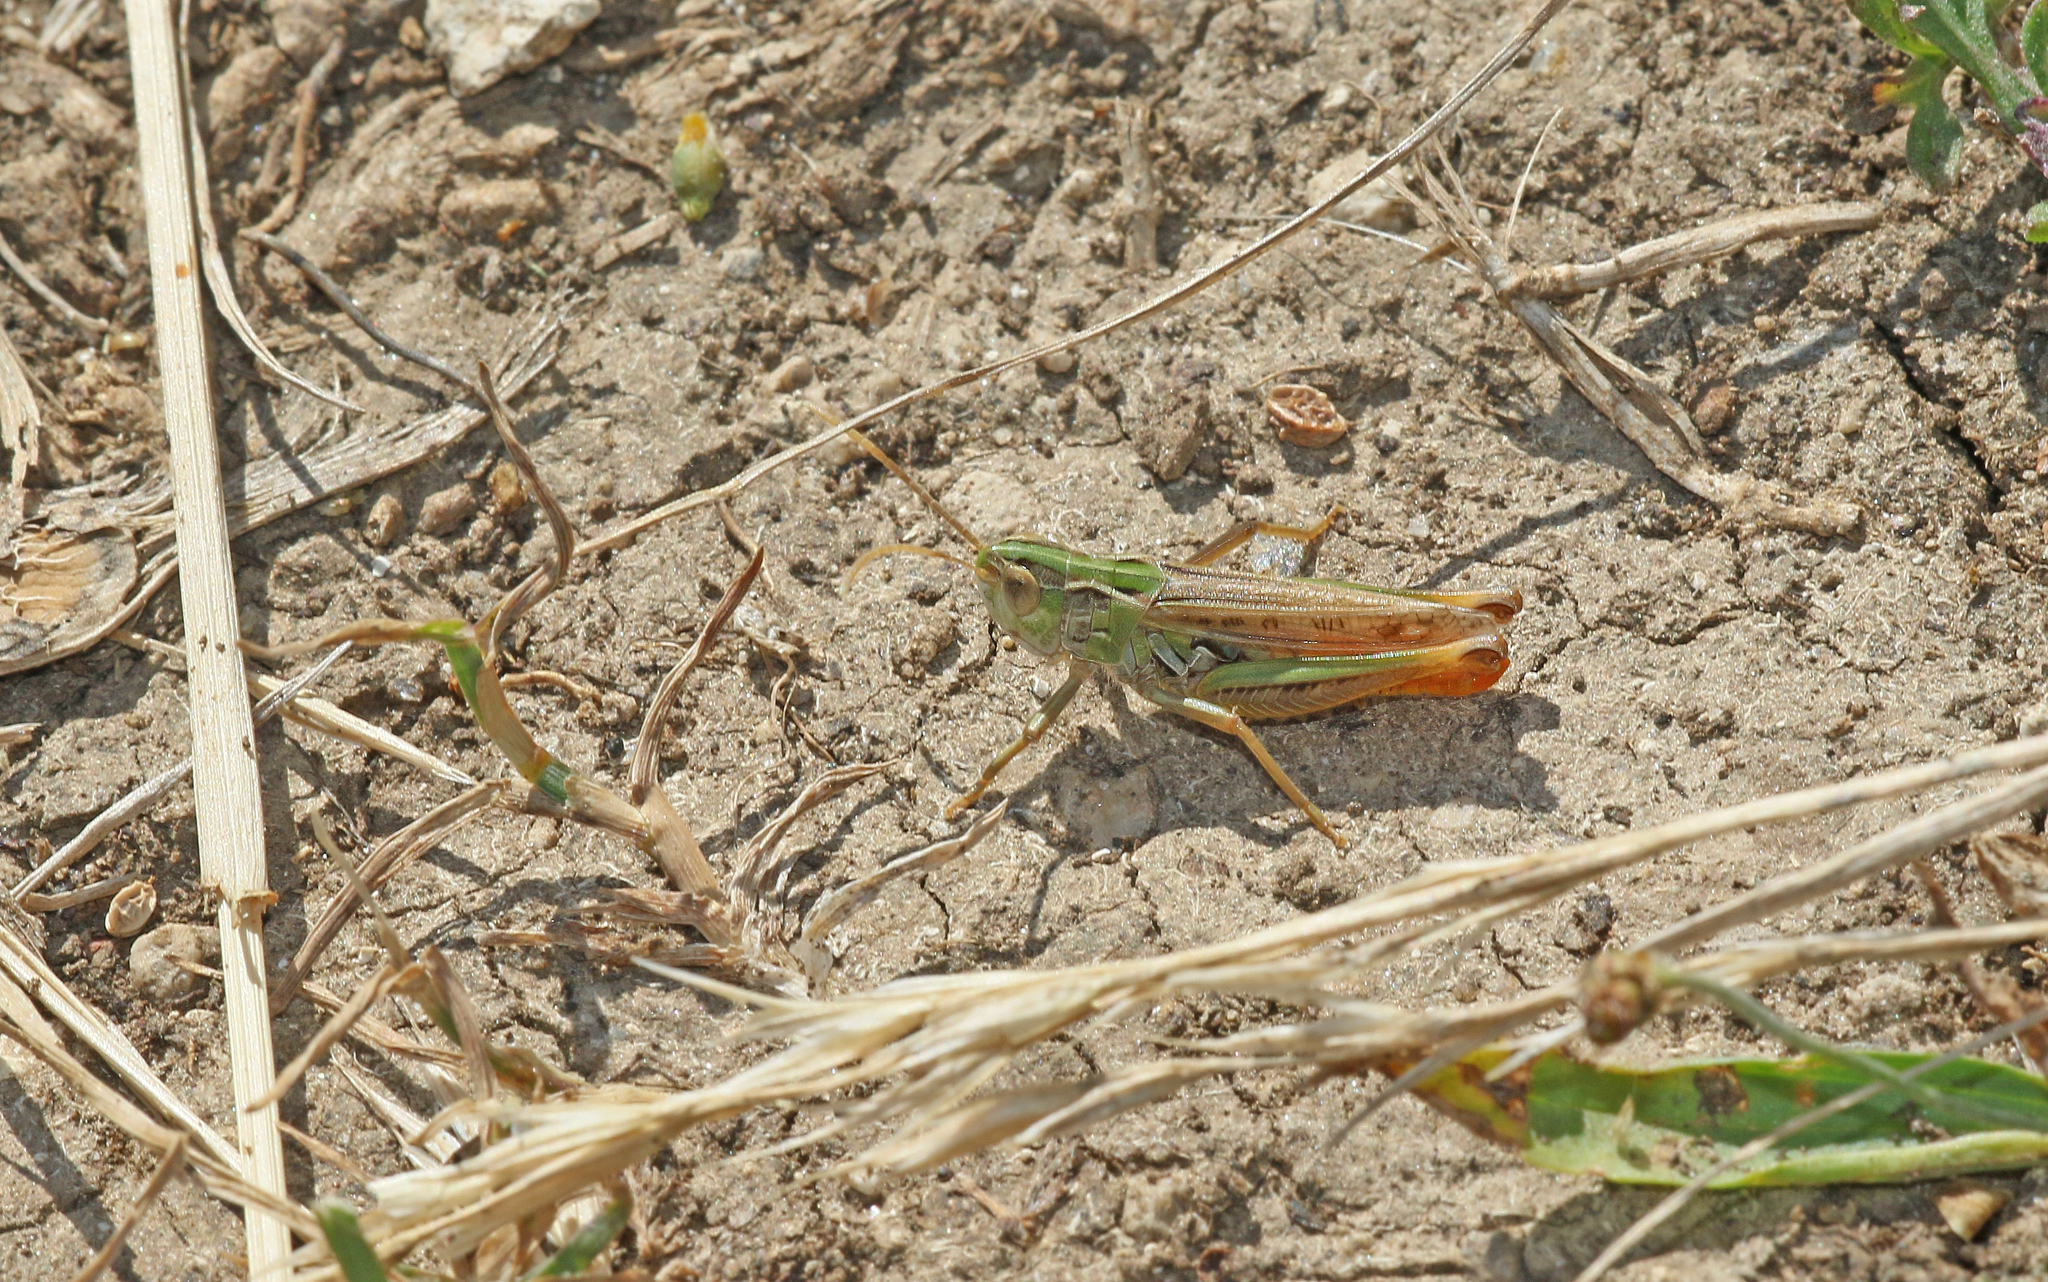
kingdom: Animalia
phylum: Arthropoda
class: Insecta
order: Orthoptera
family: Acrididae
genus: Stenobothrus
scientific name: Stenobothrus nigromaculatus
